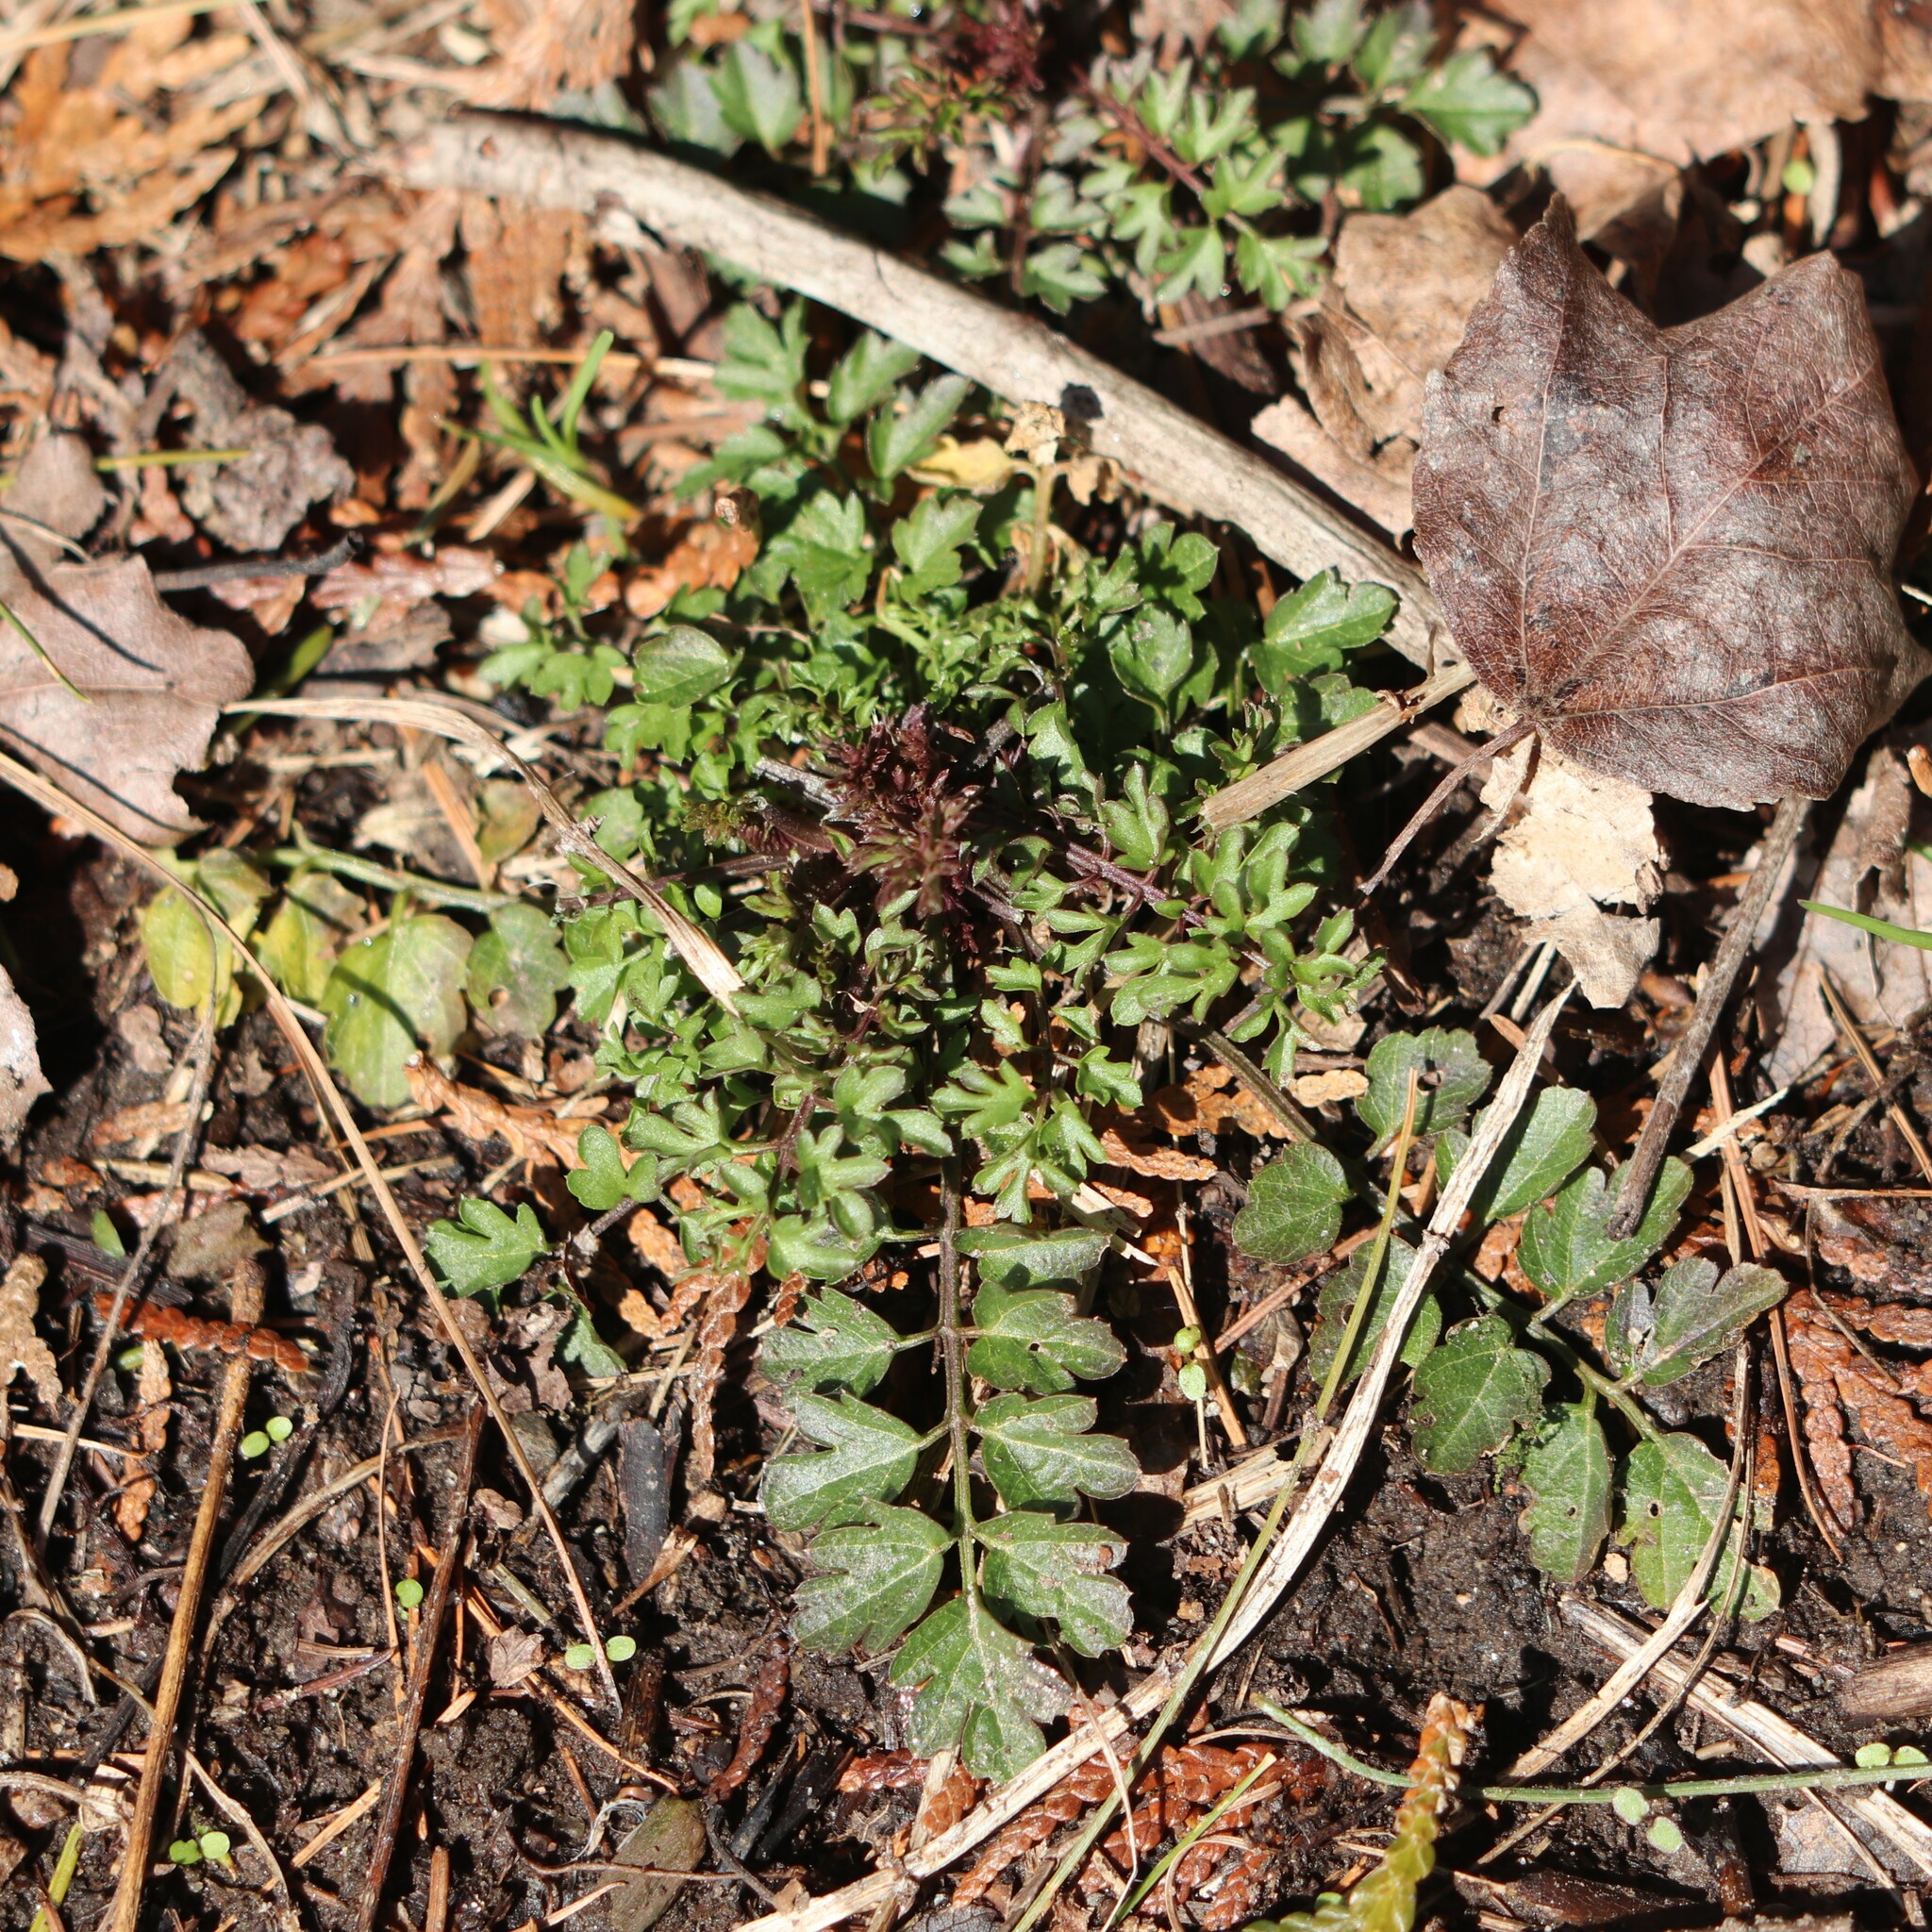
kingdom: Plantae
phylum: Tracheophyta
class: Magnoliopsida
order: Brassicales
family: Brassicaceae
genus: Cardamine
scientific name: Cardamine impatiens
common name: Narrow-leaved bitter-cress
